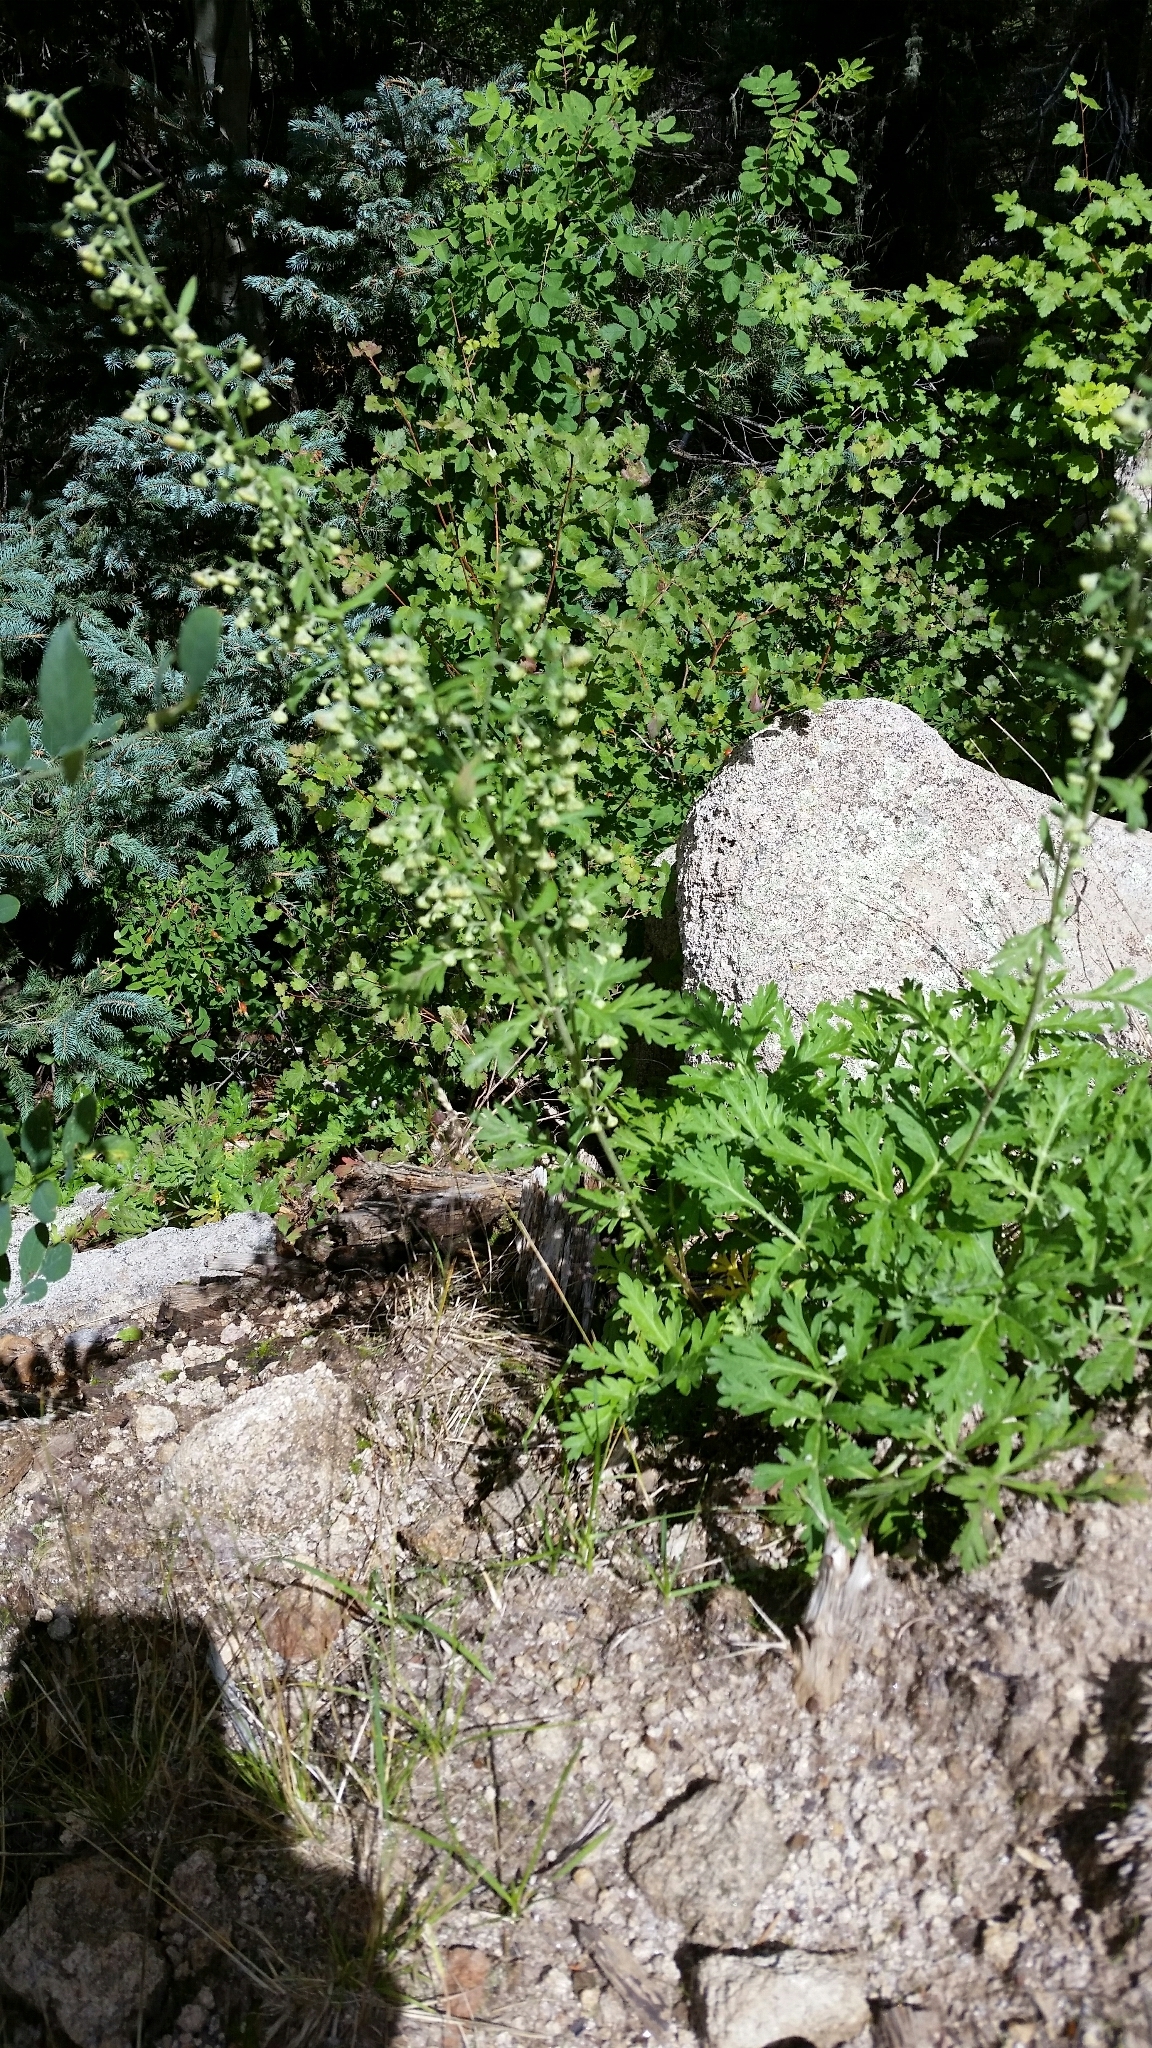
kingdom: Plantae
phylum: Tracheophyta
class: Magnoliopsida
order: Asterales
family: Asteraceae
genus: Artemisia
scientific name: Artemisia franserioides
